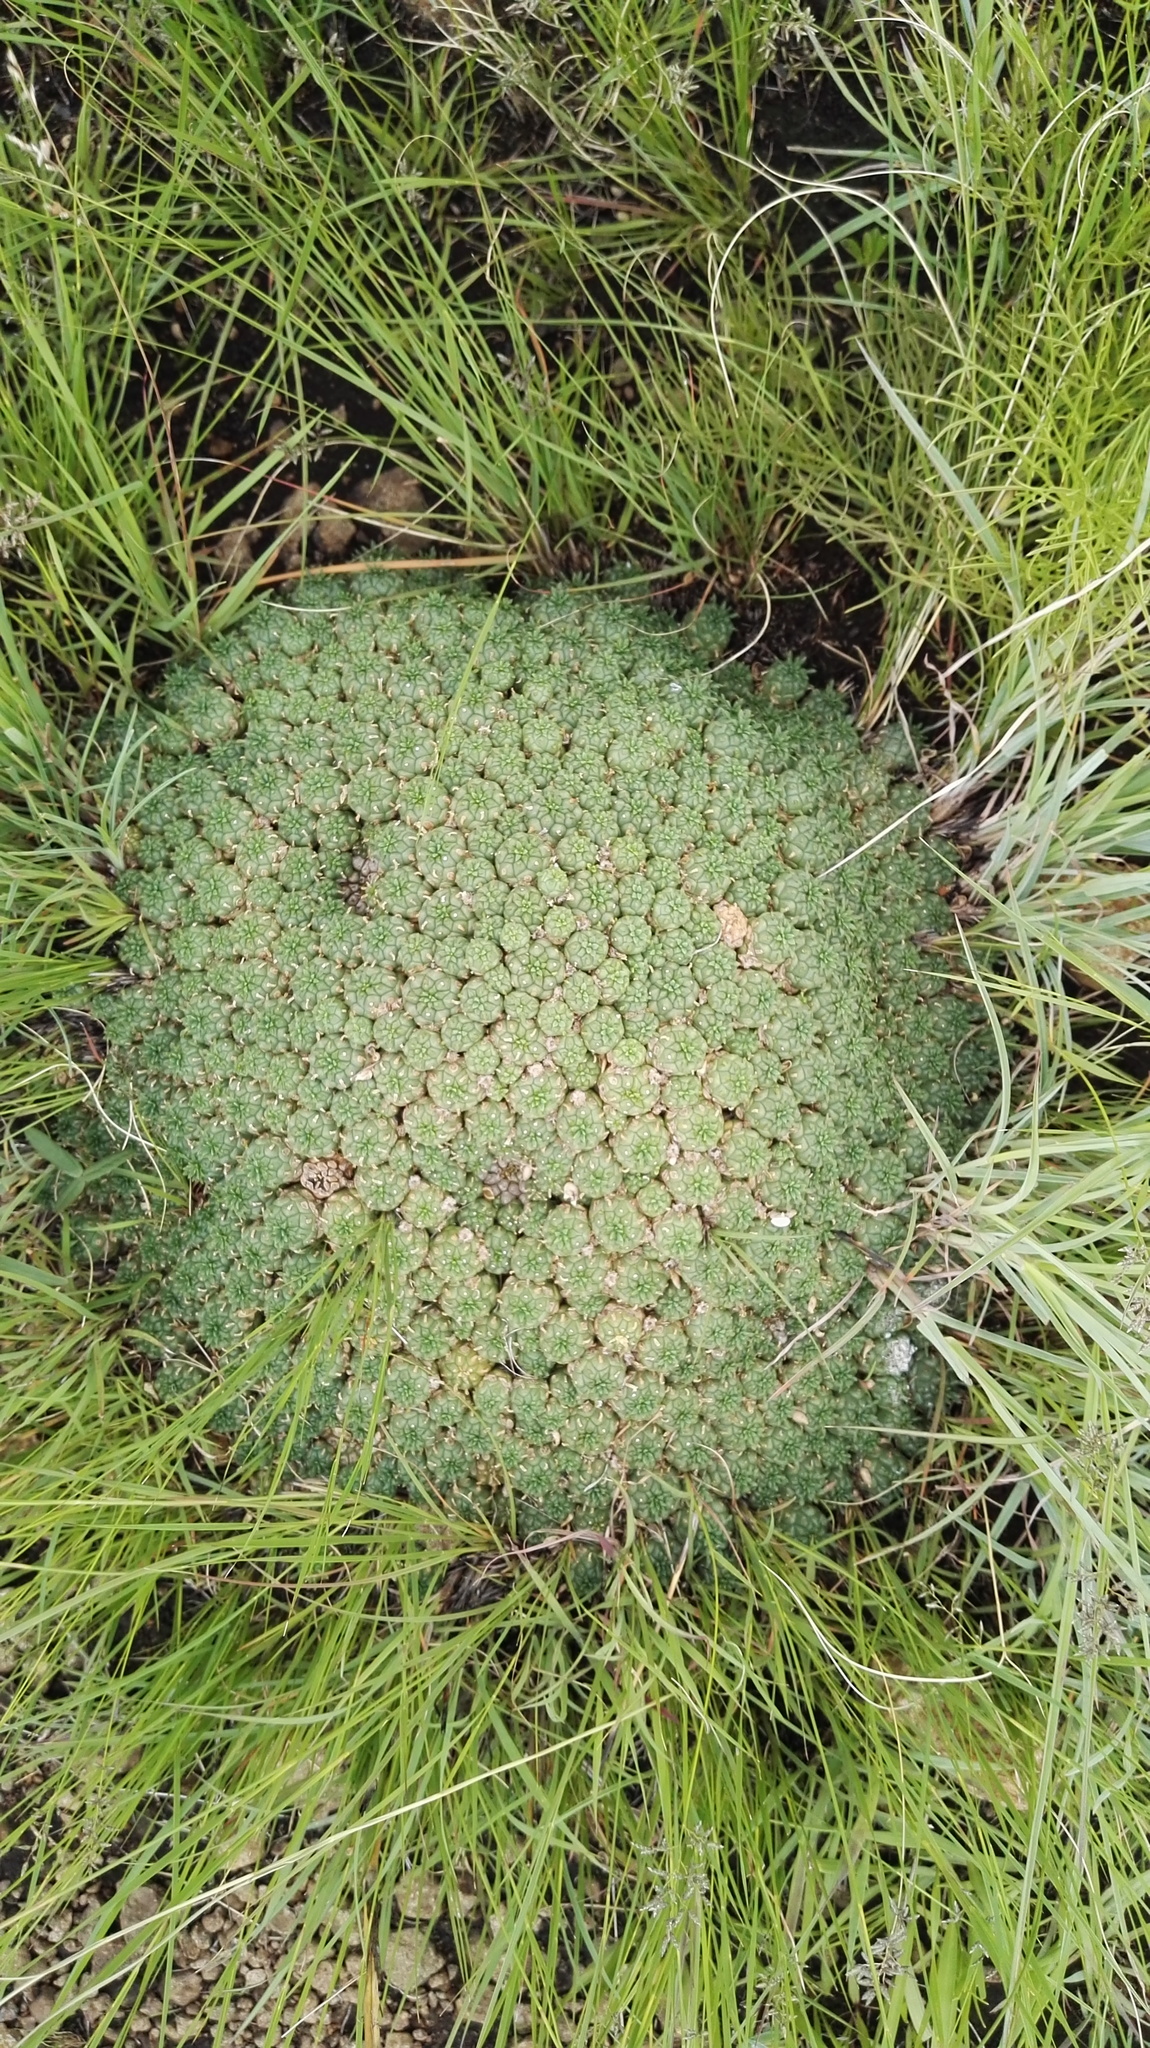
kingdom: Plantae
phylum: Tracheophyta
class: Magnoliopsida
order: Malpighiales
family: Euphorbiaceae
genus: Euphorbia
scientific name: Euphorbia clavarioides
